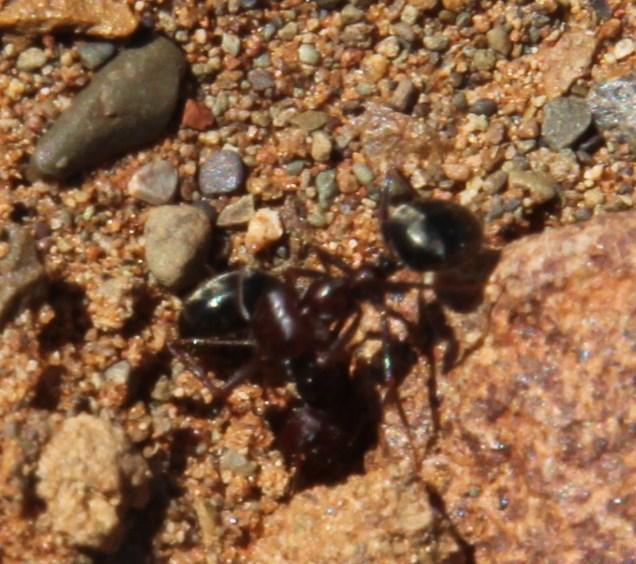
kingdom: Animalia
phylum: Arthropoda
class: Insecta
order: Hymenoptera
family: Formicidae
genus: Anoplolepis
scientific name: Anoplolepis steingroeveri
